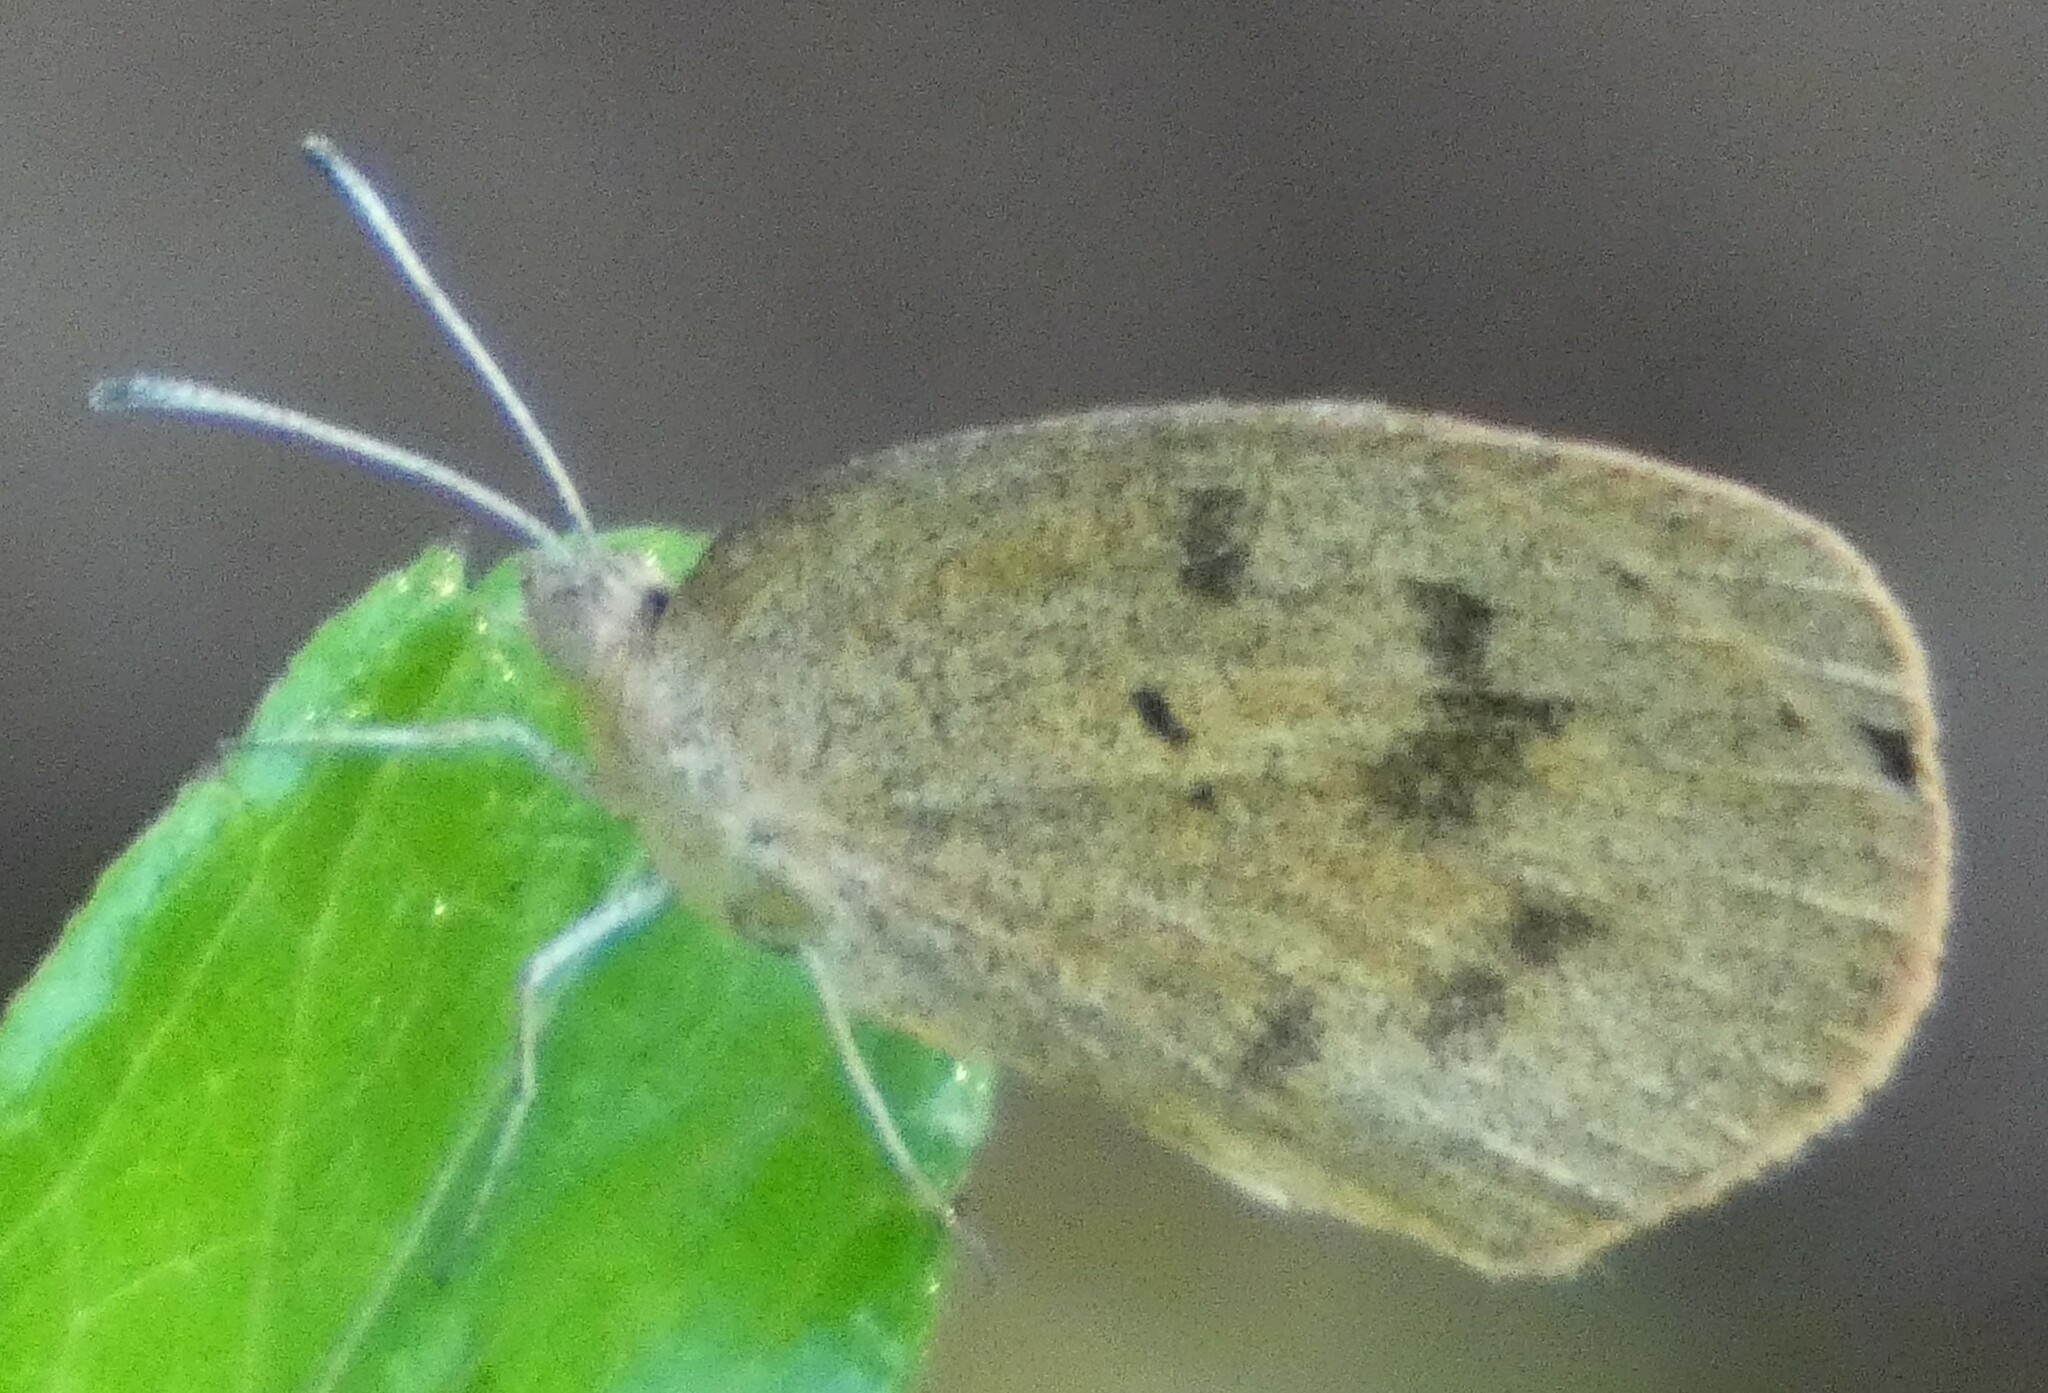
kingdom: Animalia
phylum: Arthropoda
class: Insecta
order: Lepidoptera
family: Pieridae
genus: Eurema
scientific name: Eurema daira
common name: Barred sulphur
